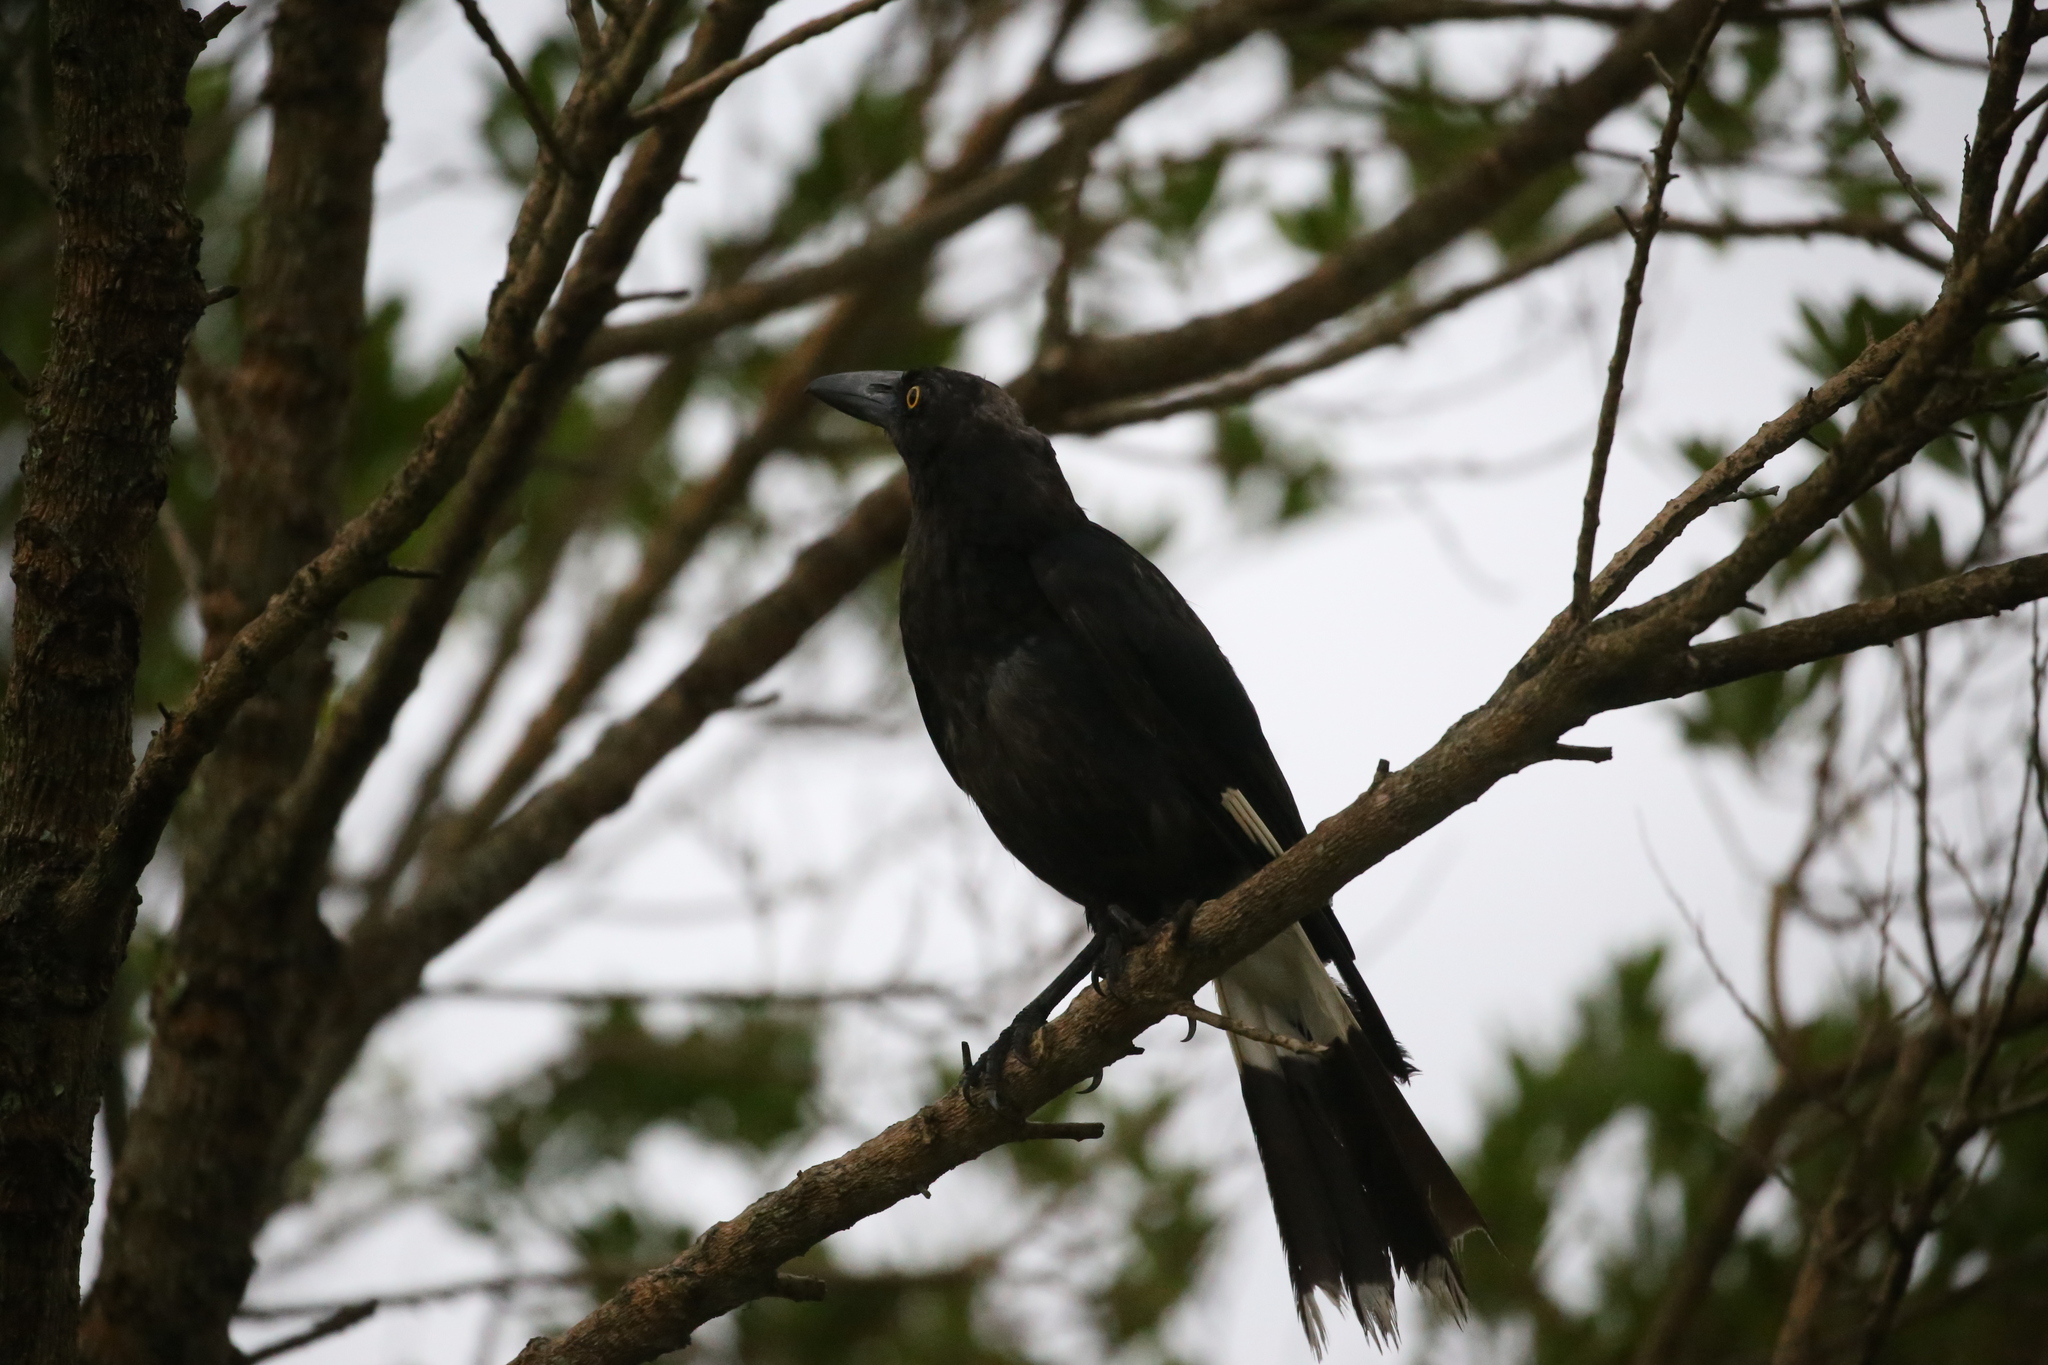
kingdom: Animalia
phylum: Chordata
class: Aves
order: Passeriformes
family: Cracticidae
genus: Strepera
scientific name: Strepera graculina
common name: Pied currawong
